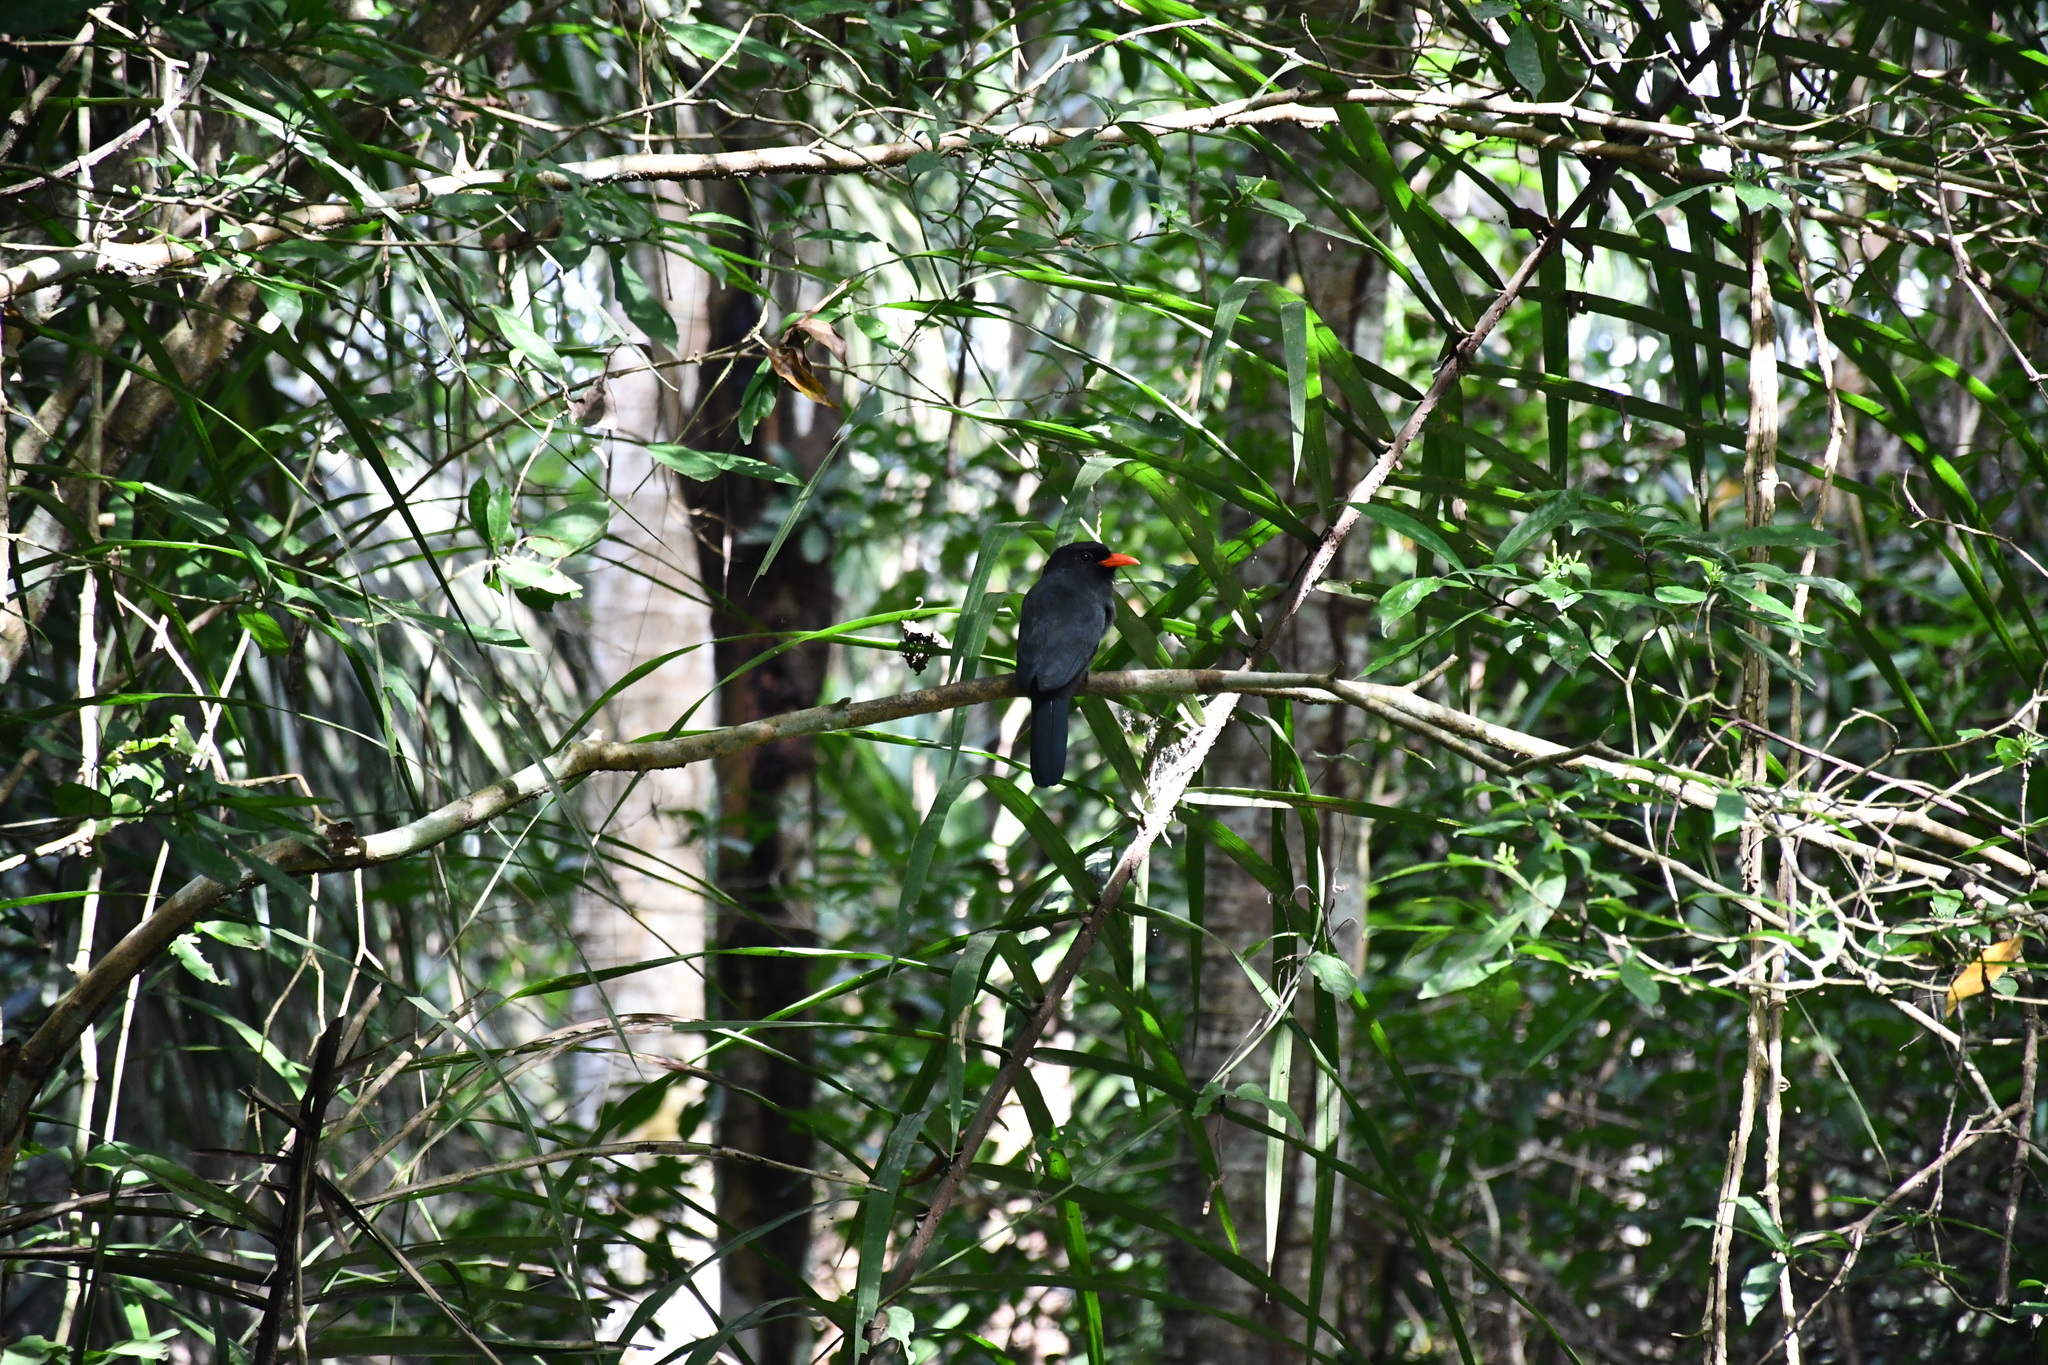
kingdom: Animalia
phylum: Chordata
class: Aves
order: Piciformes
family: Bucconidae
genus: Monasa
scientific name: Monasa nigrifrons
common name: Black-fronted nunbird
